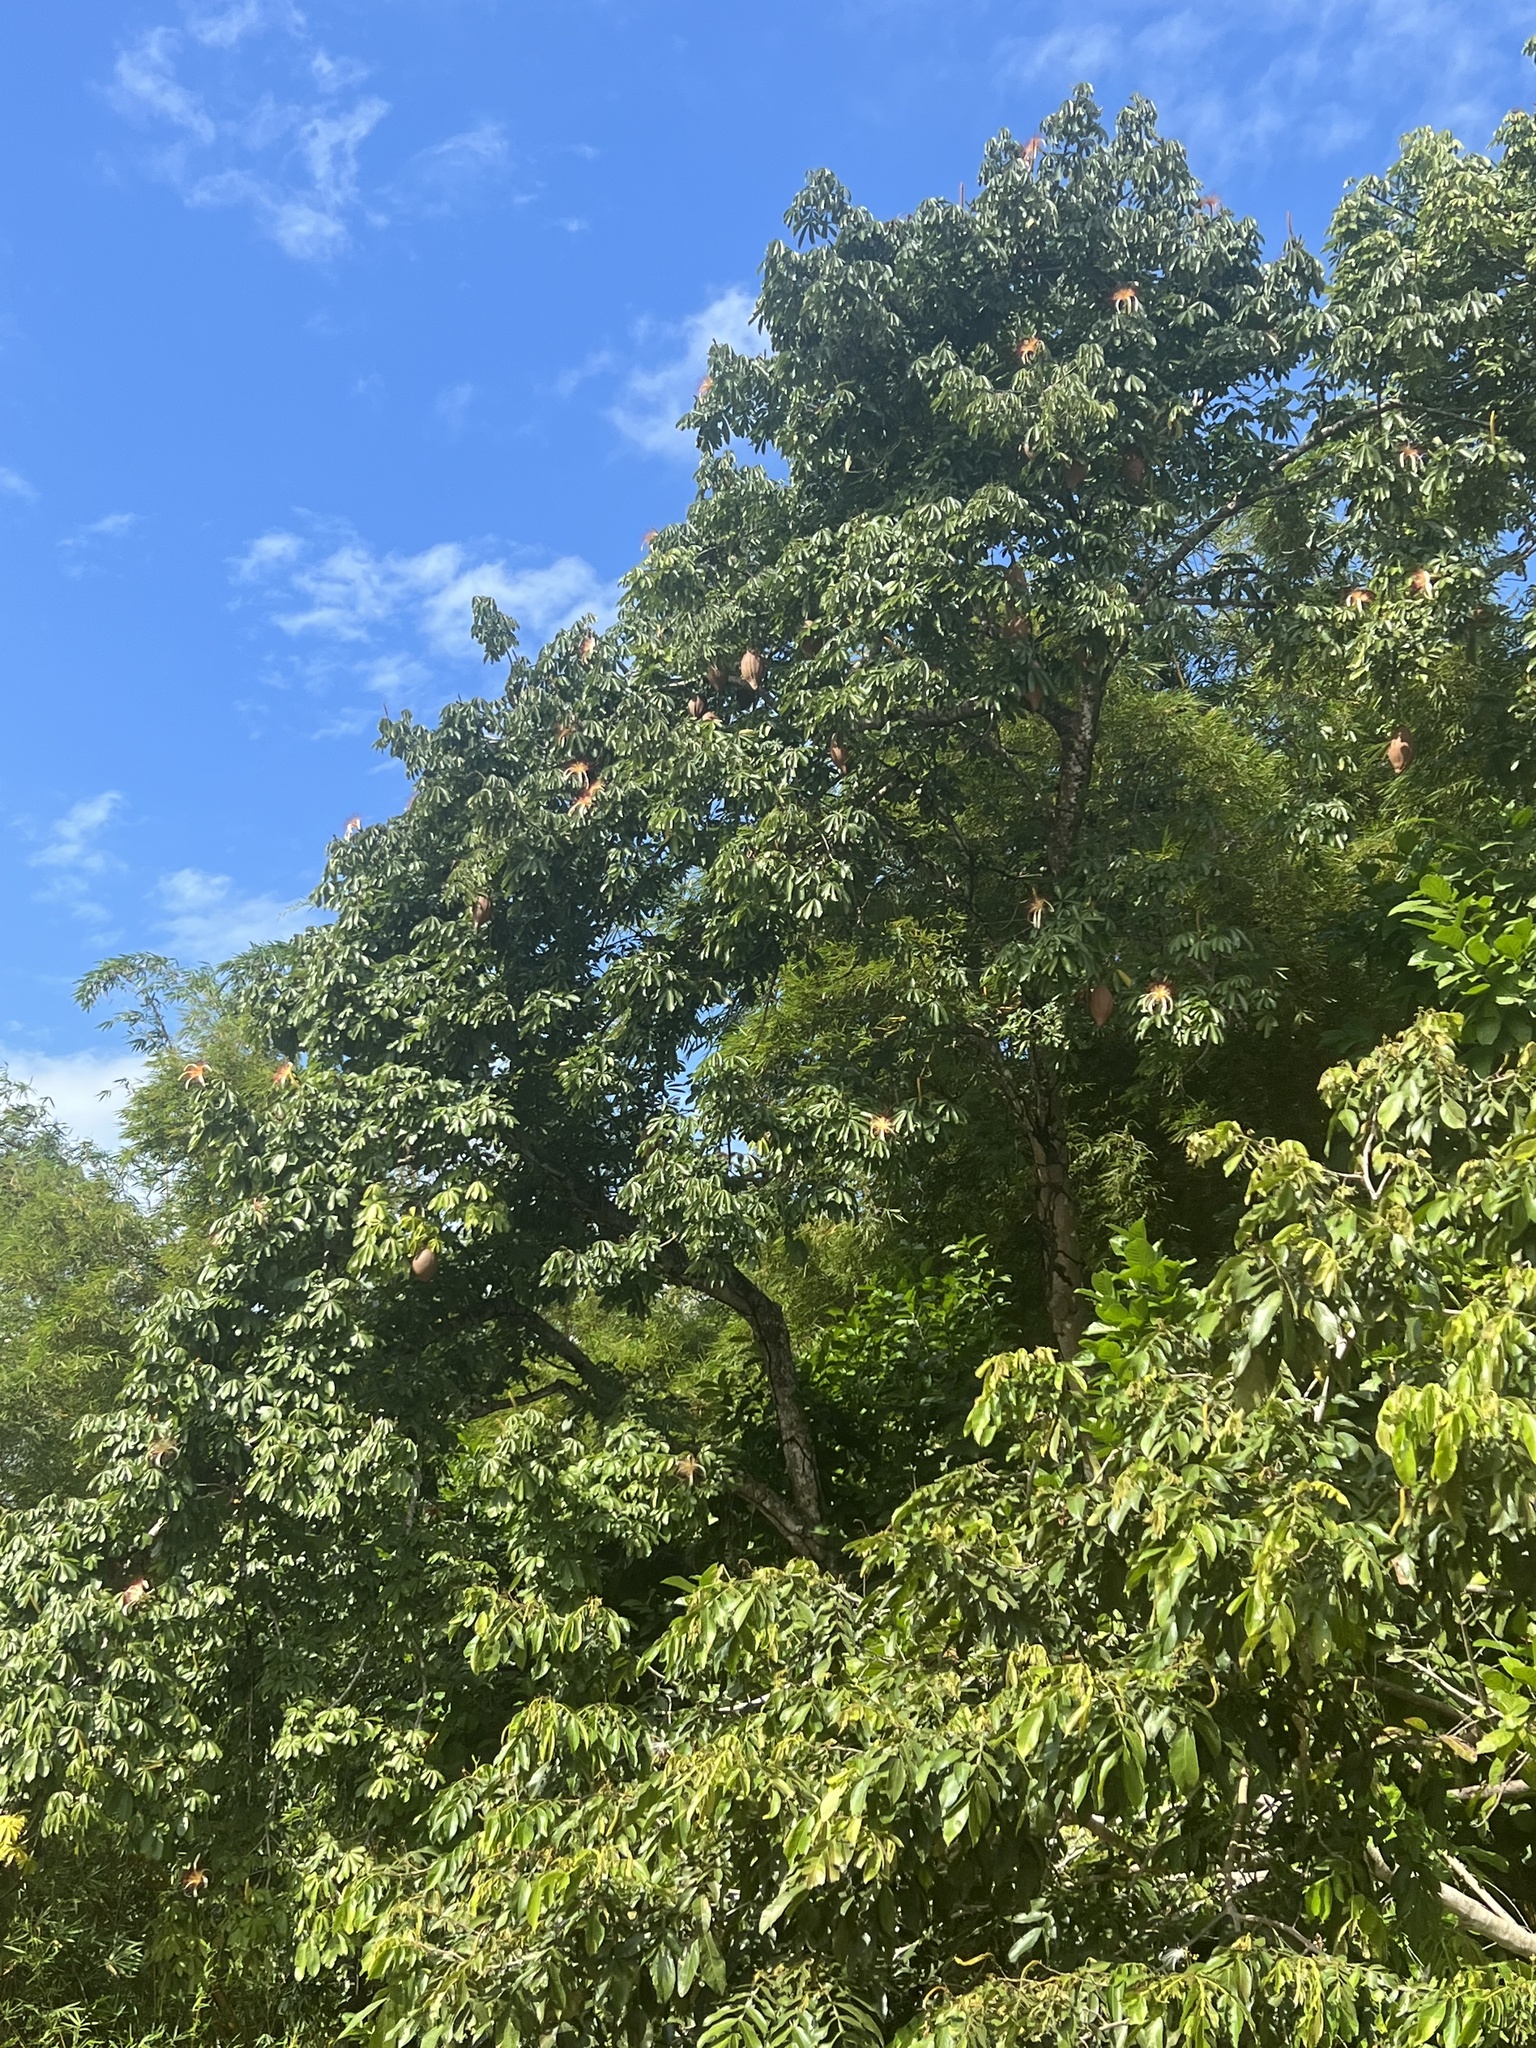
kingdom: Plantae
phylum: Tracheophyta
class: Magnoliopsida
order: Malvales
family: Malvaceae
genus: Pachira
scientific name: Pachira aquatica
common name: Provision-tree
